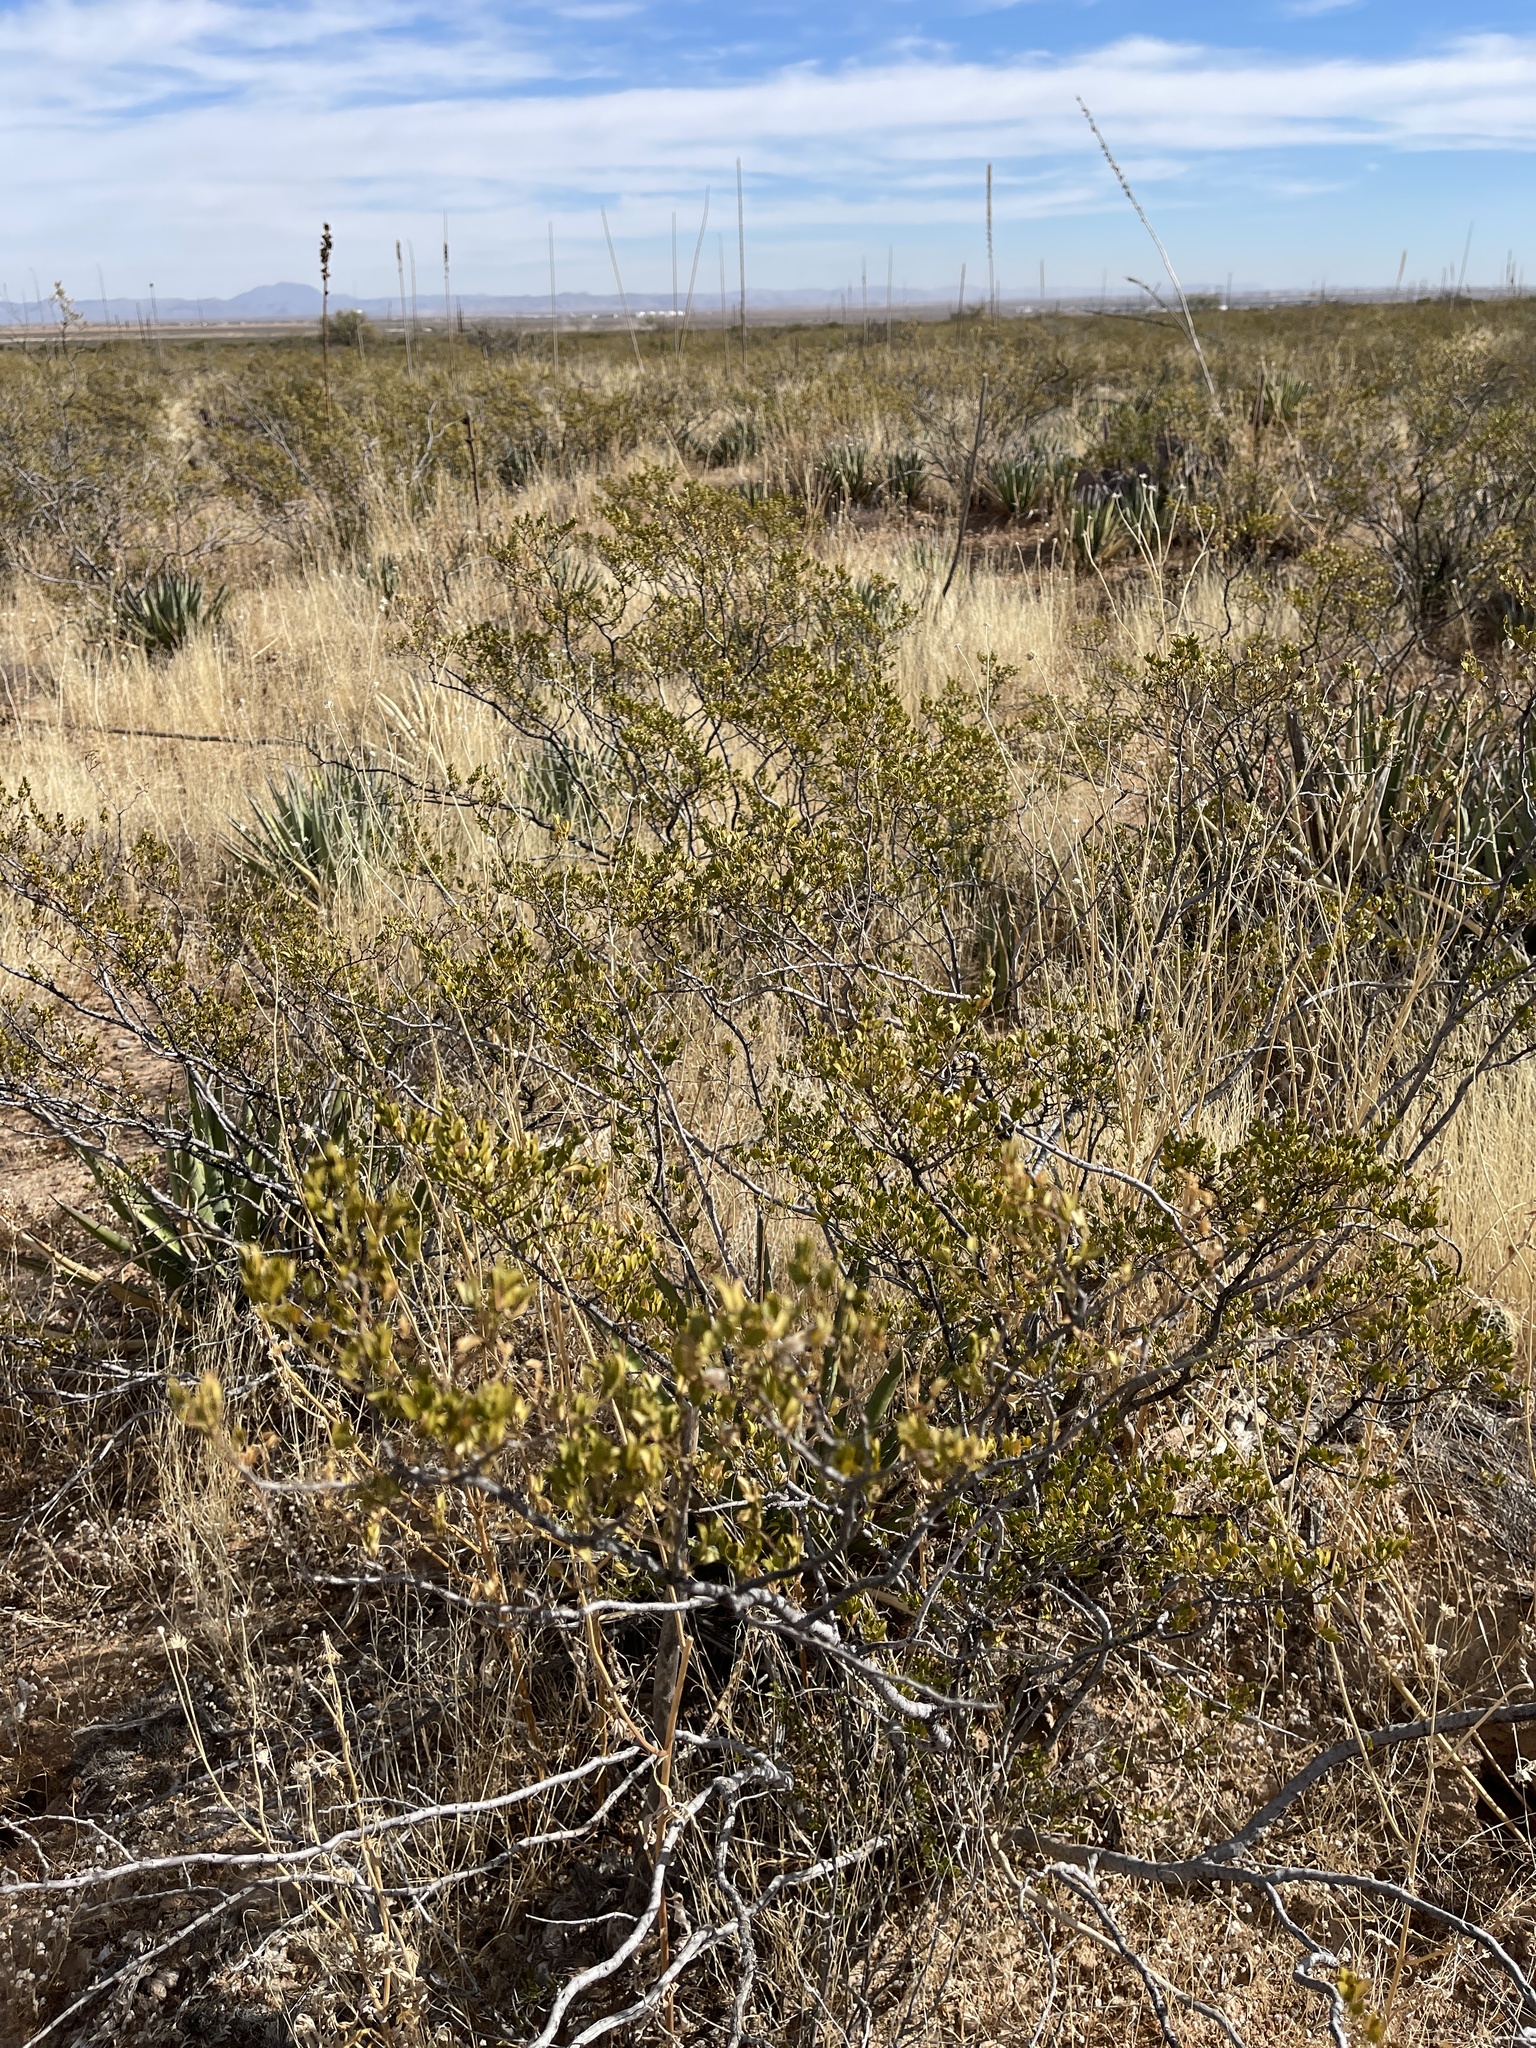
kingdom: Plantae
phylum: Tracheophyta
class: Magnoliopsida
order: Zygophyllales
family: Zygophyllaceae
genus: Larrea
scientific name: Larrea tridentata
